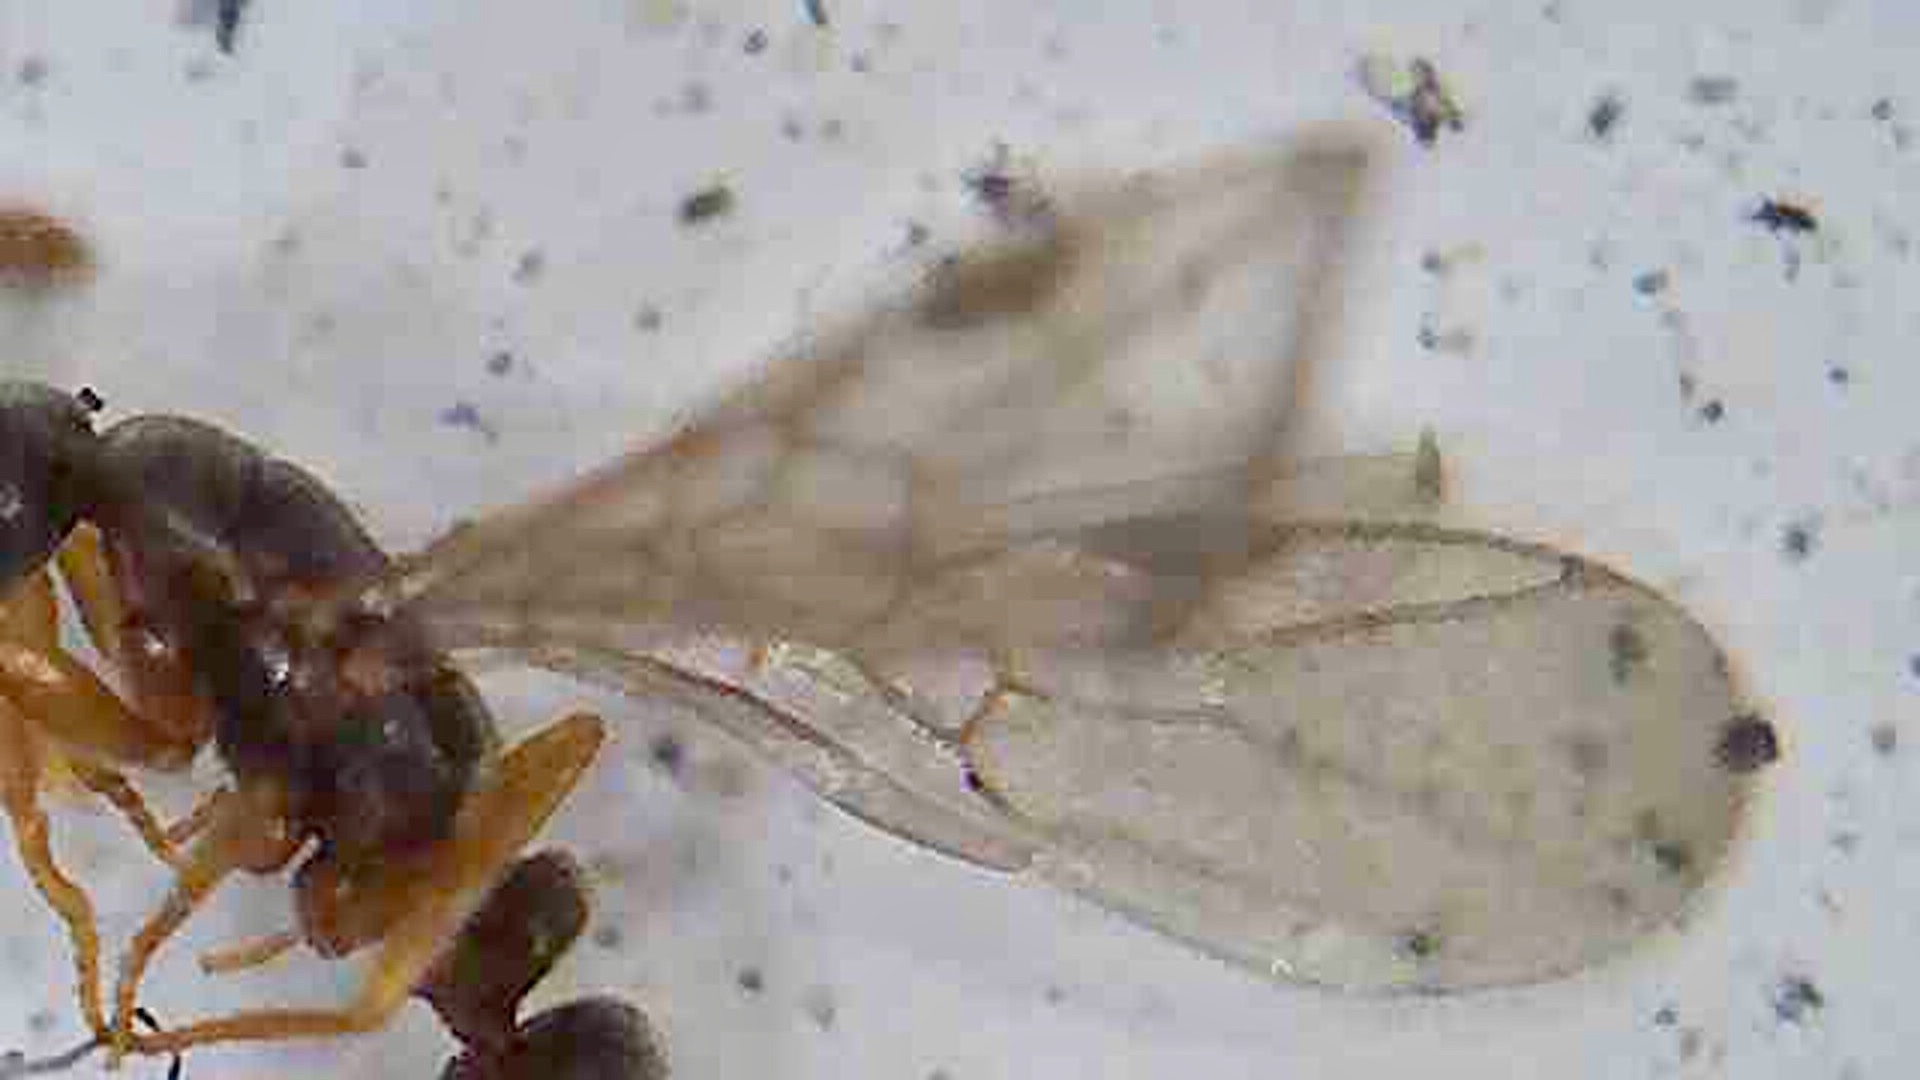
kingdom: Animalia
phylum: Arthropoda
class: Insecta
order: Hymenoptera
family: Formicidae
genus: Ponera
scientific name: Ponera leae
